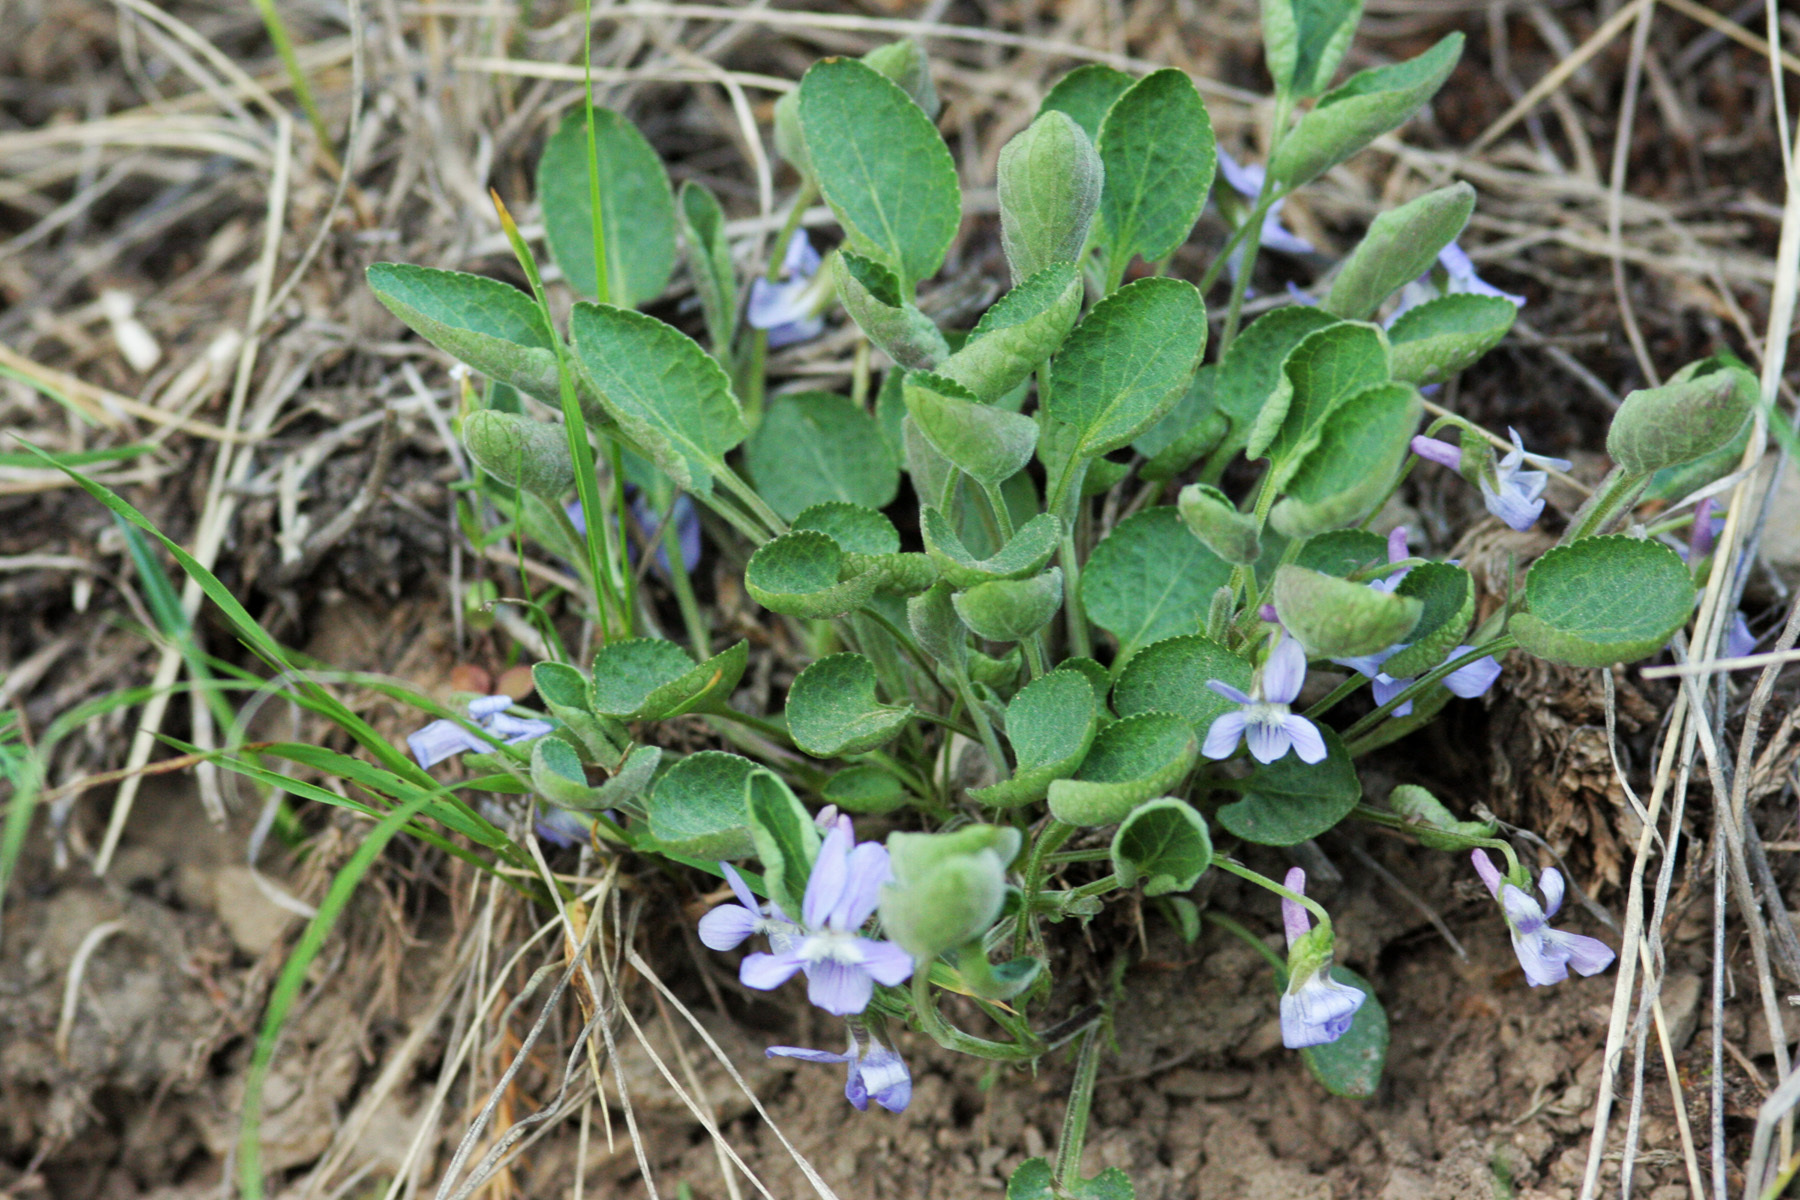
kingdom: Plantae
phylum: Tracheophyta
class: Magnoliopsida
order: Malpighiales
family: Violaceae
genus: Viola
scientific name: Viola adunca
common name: Sand violet
